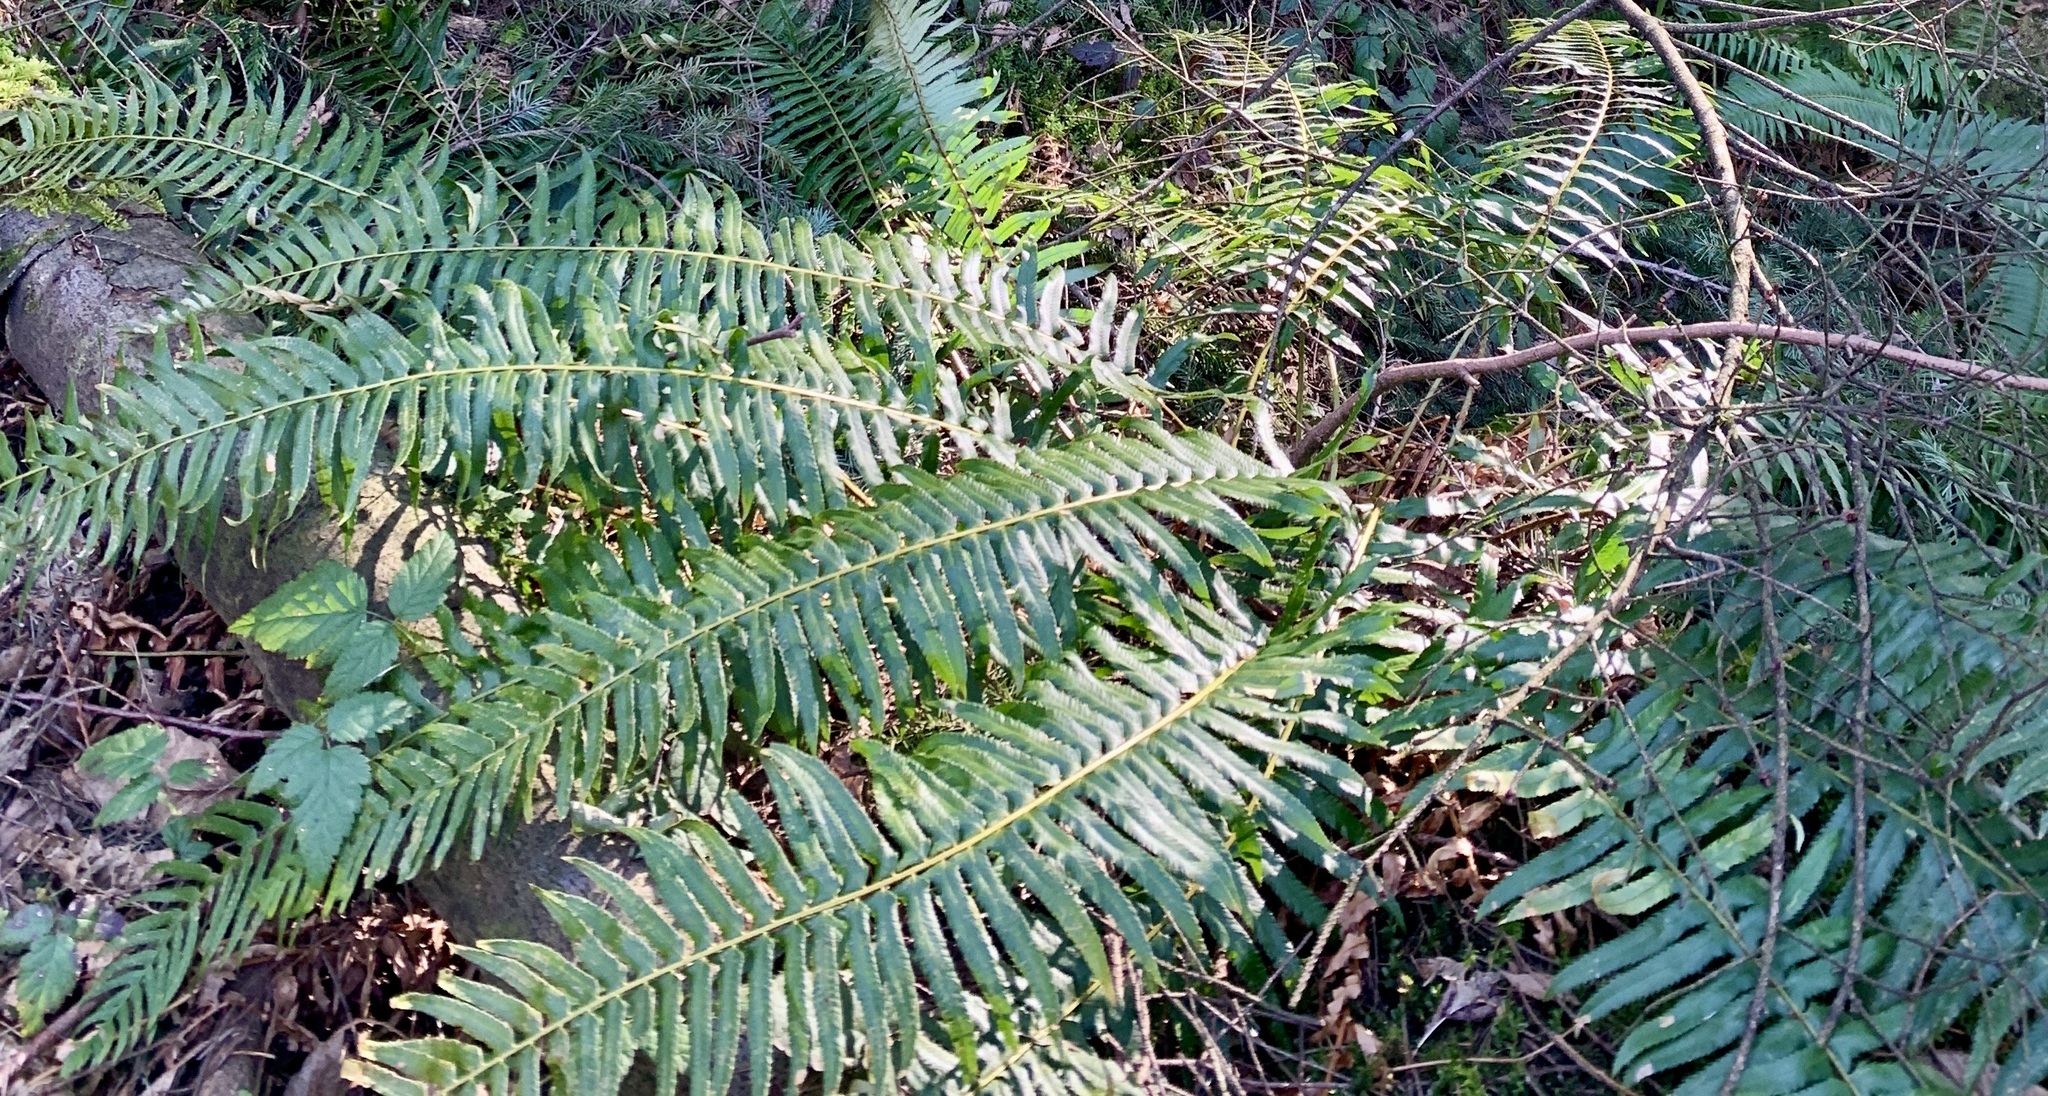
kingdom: Plantae
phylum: Tracheophyta
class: Polypodiopsida
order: Polypodiales
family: Dryopteridaceae
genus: Polystichum
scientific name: Polystichum munitum
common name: Western sword-fern
